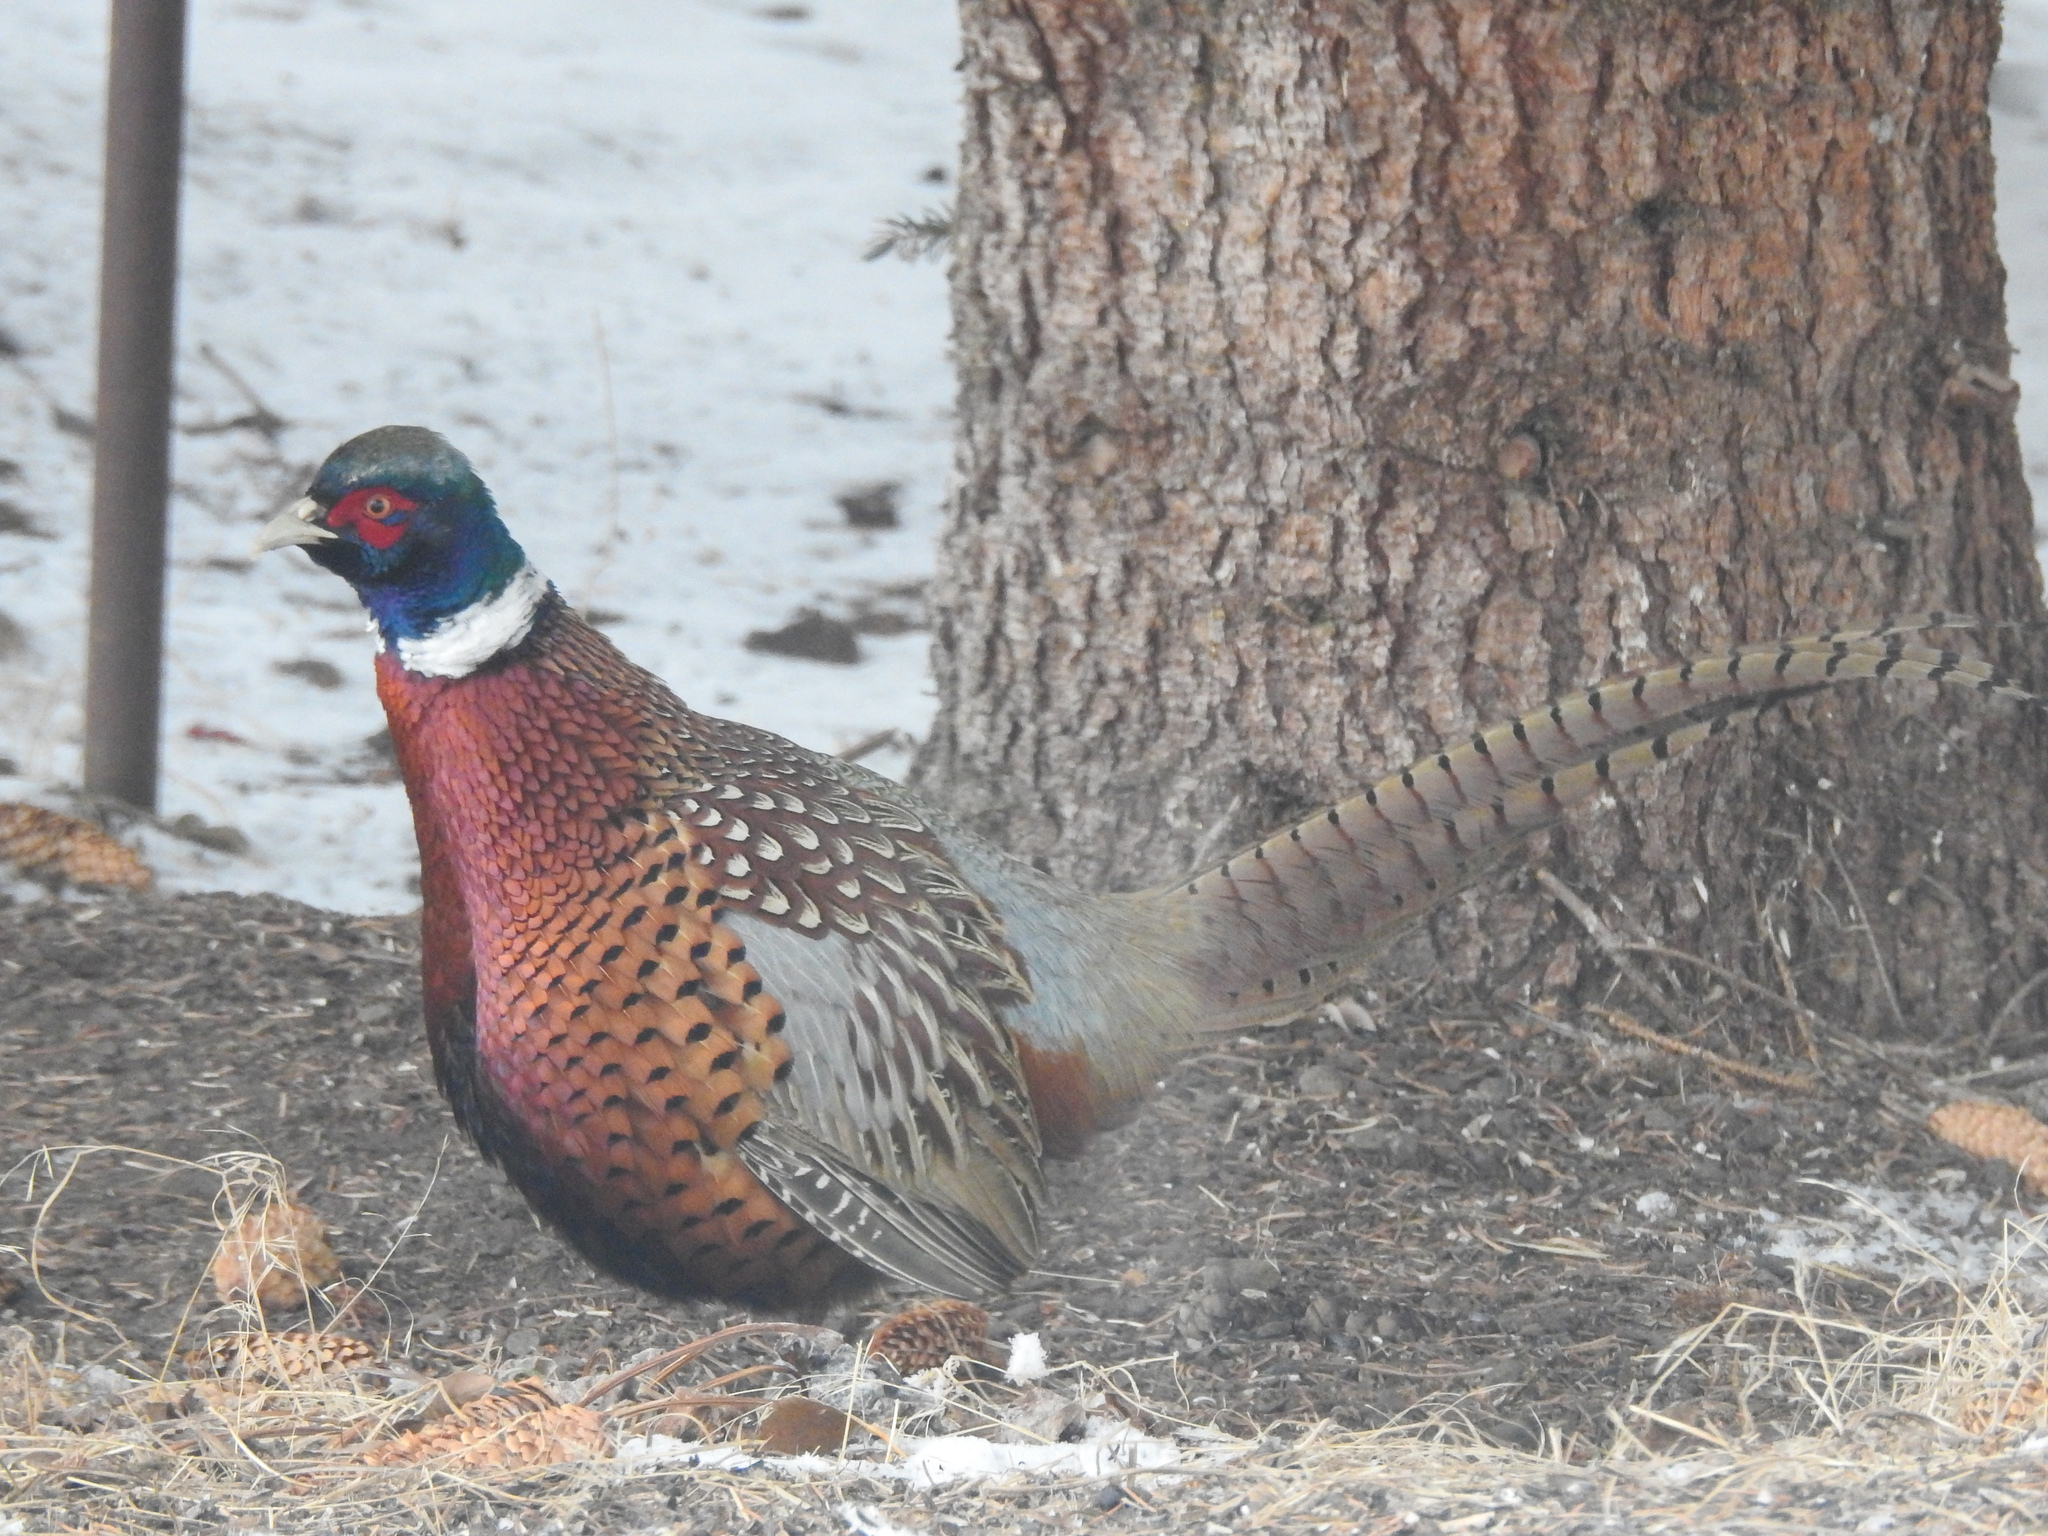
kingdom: Animalia
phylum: Chordata
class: Aves
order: Galliformes
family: Phasianidae
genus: Phasianus
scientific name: Phasianus colchicus
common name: Common pheasant
